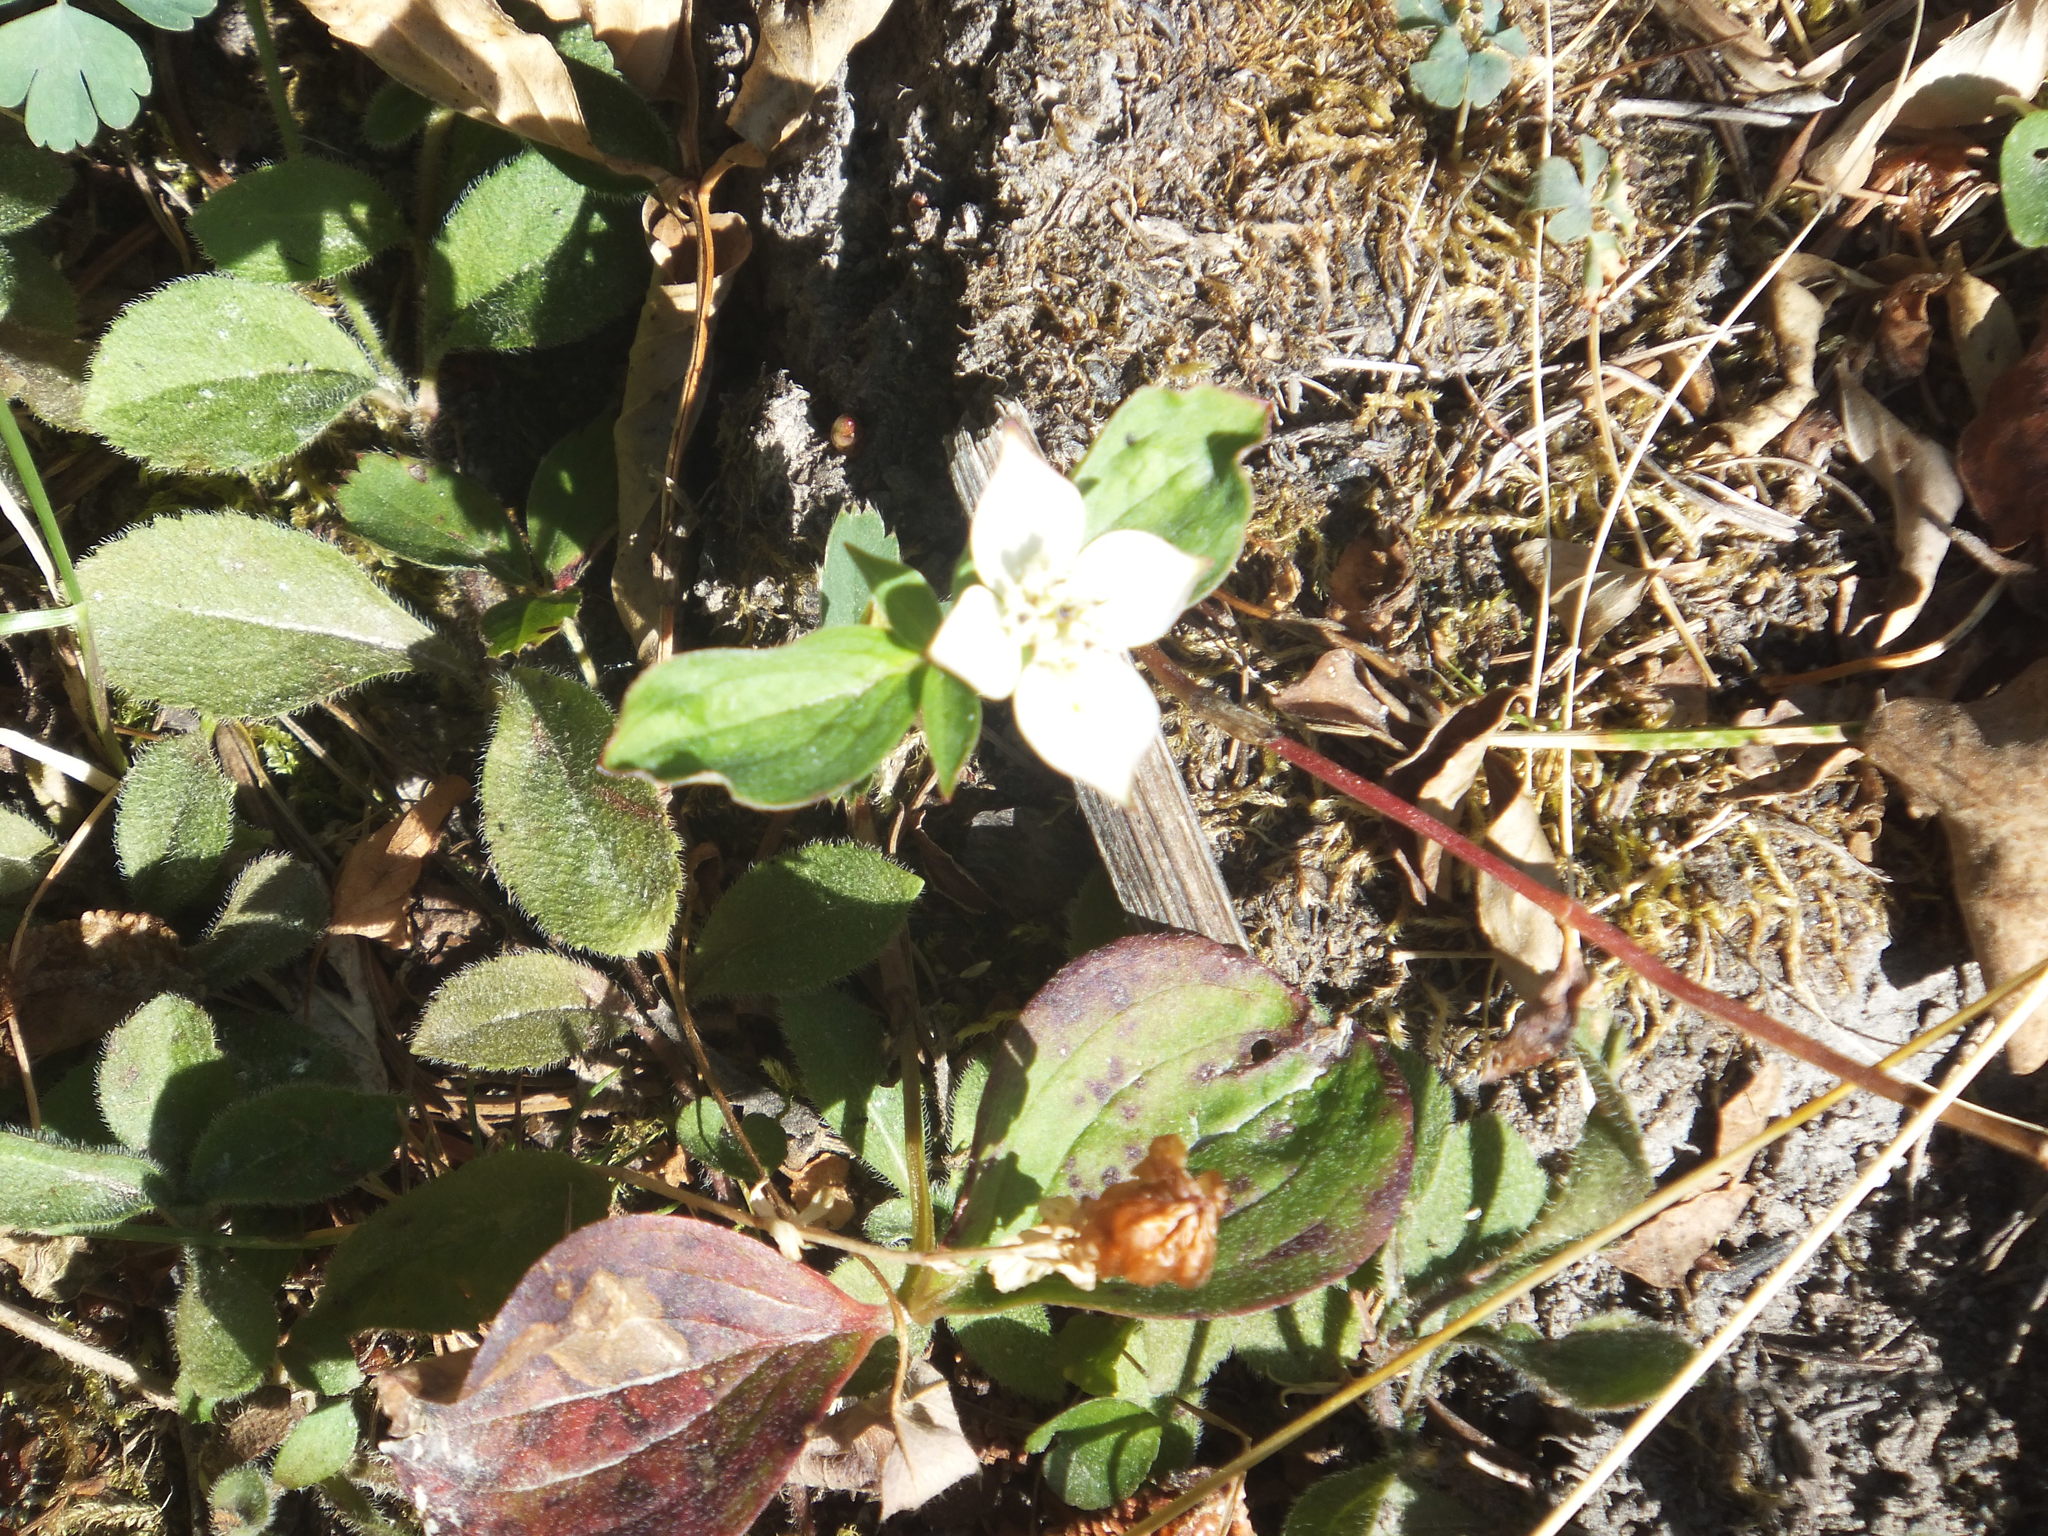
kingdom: Plantae
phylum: Tracheophyta
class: Magnoliopsida
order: Cornales
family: Cornaceae
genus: Cornus
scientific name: Cornus canadensis
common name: Creeping dogwood
